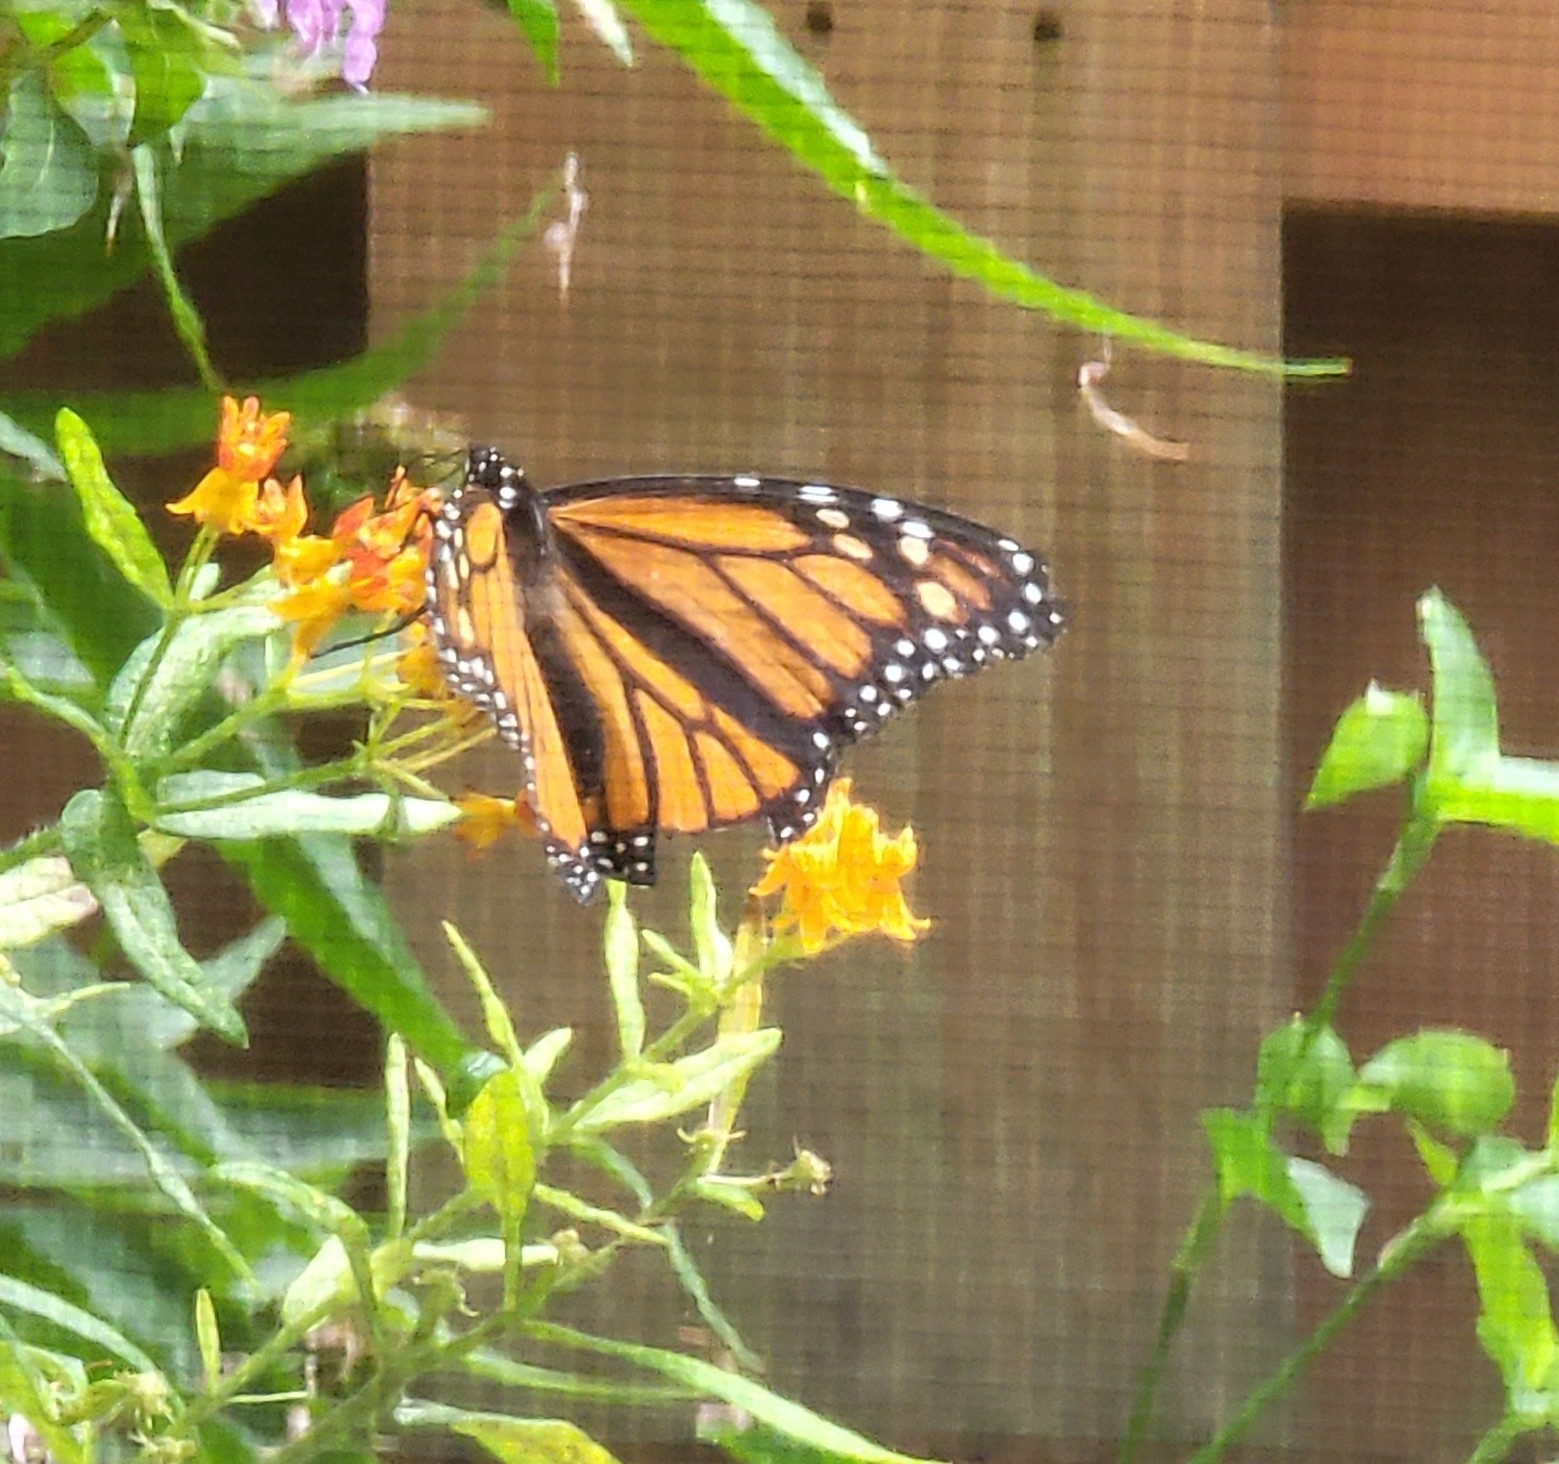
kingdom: Animalia
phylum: Arthropoda
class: Insecta
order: Lepidoptera
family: Nymphalidae
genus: Danaus
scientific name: Danaus plexippus
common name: Monarch
